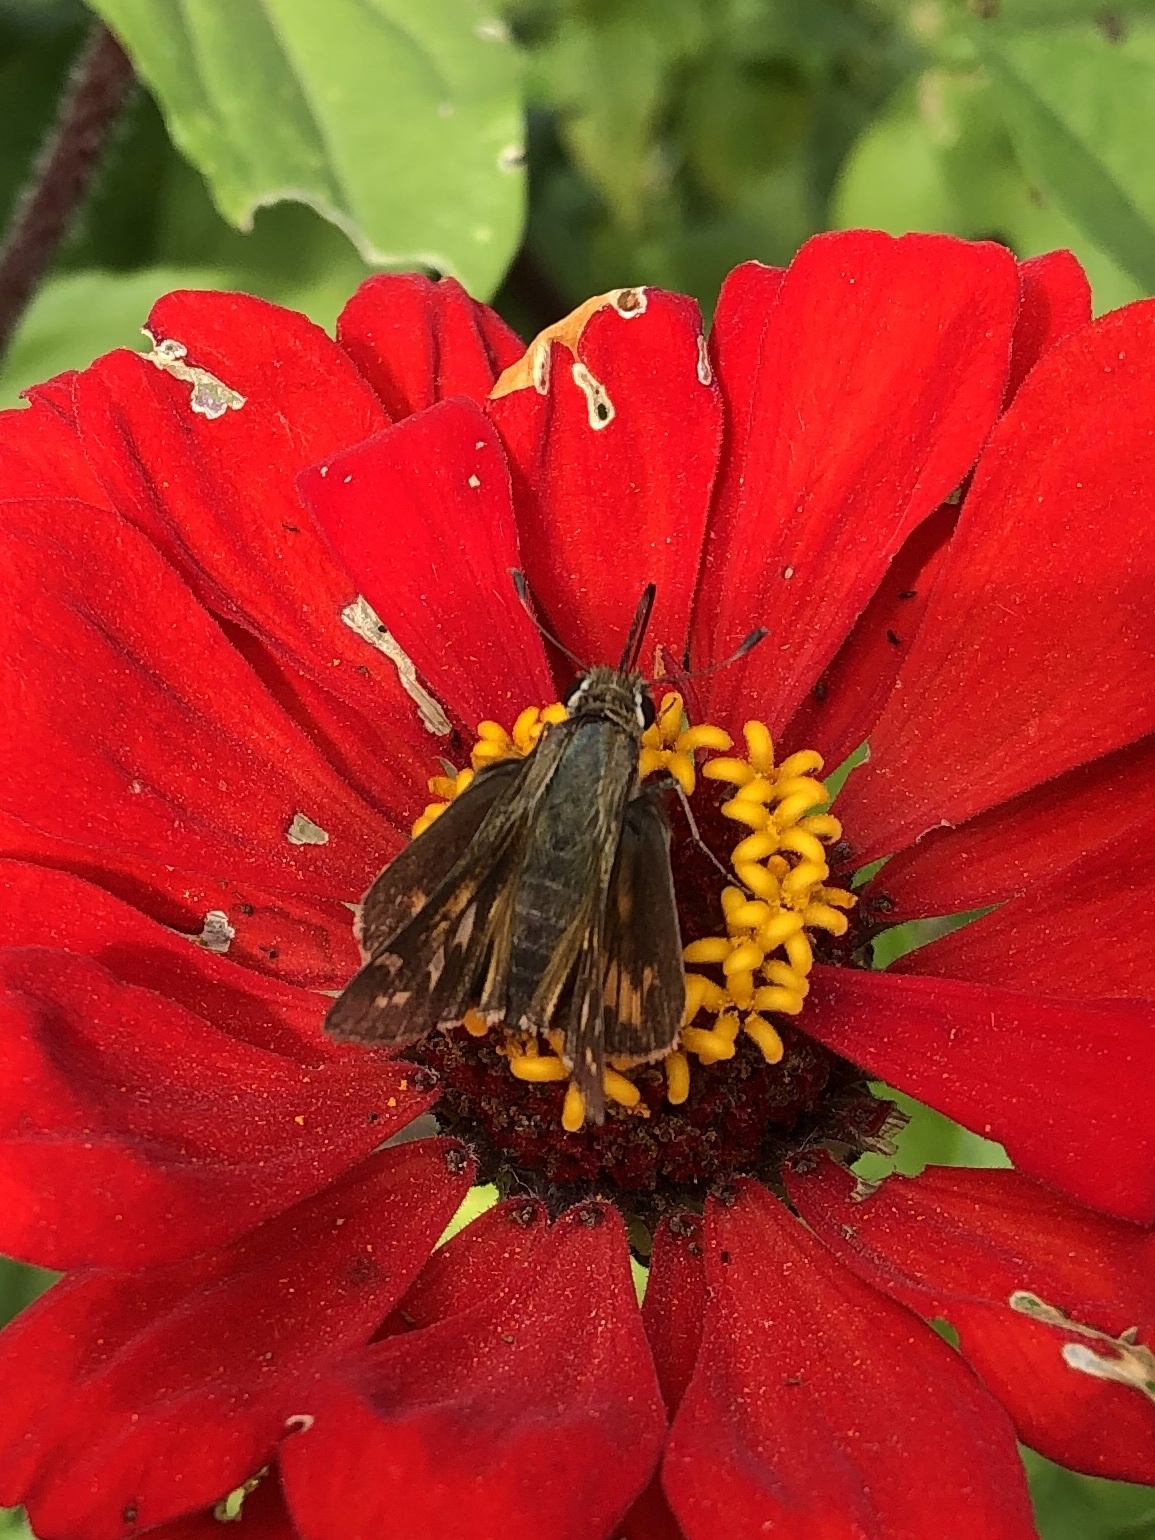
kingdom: Animalia
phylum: Arthropoda
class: Insecta
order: Lepidoptera
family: Hesperiidae
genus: Atalopedes
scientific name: Atalopedes
